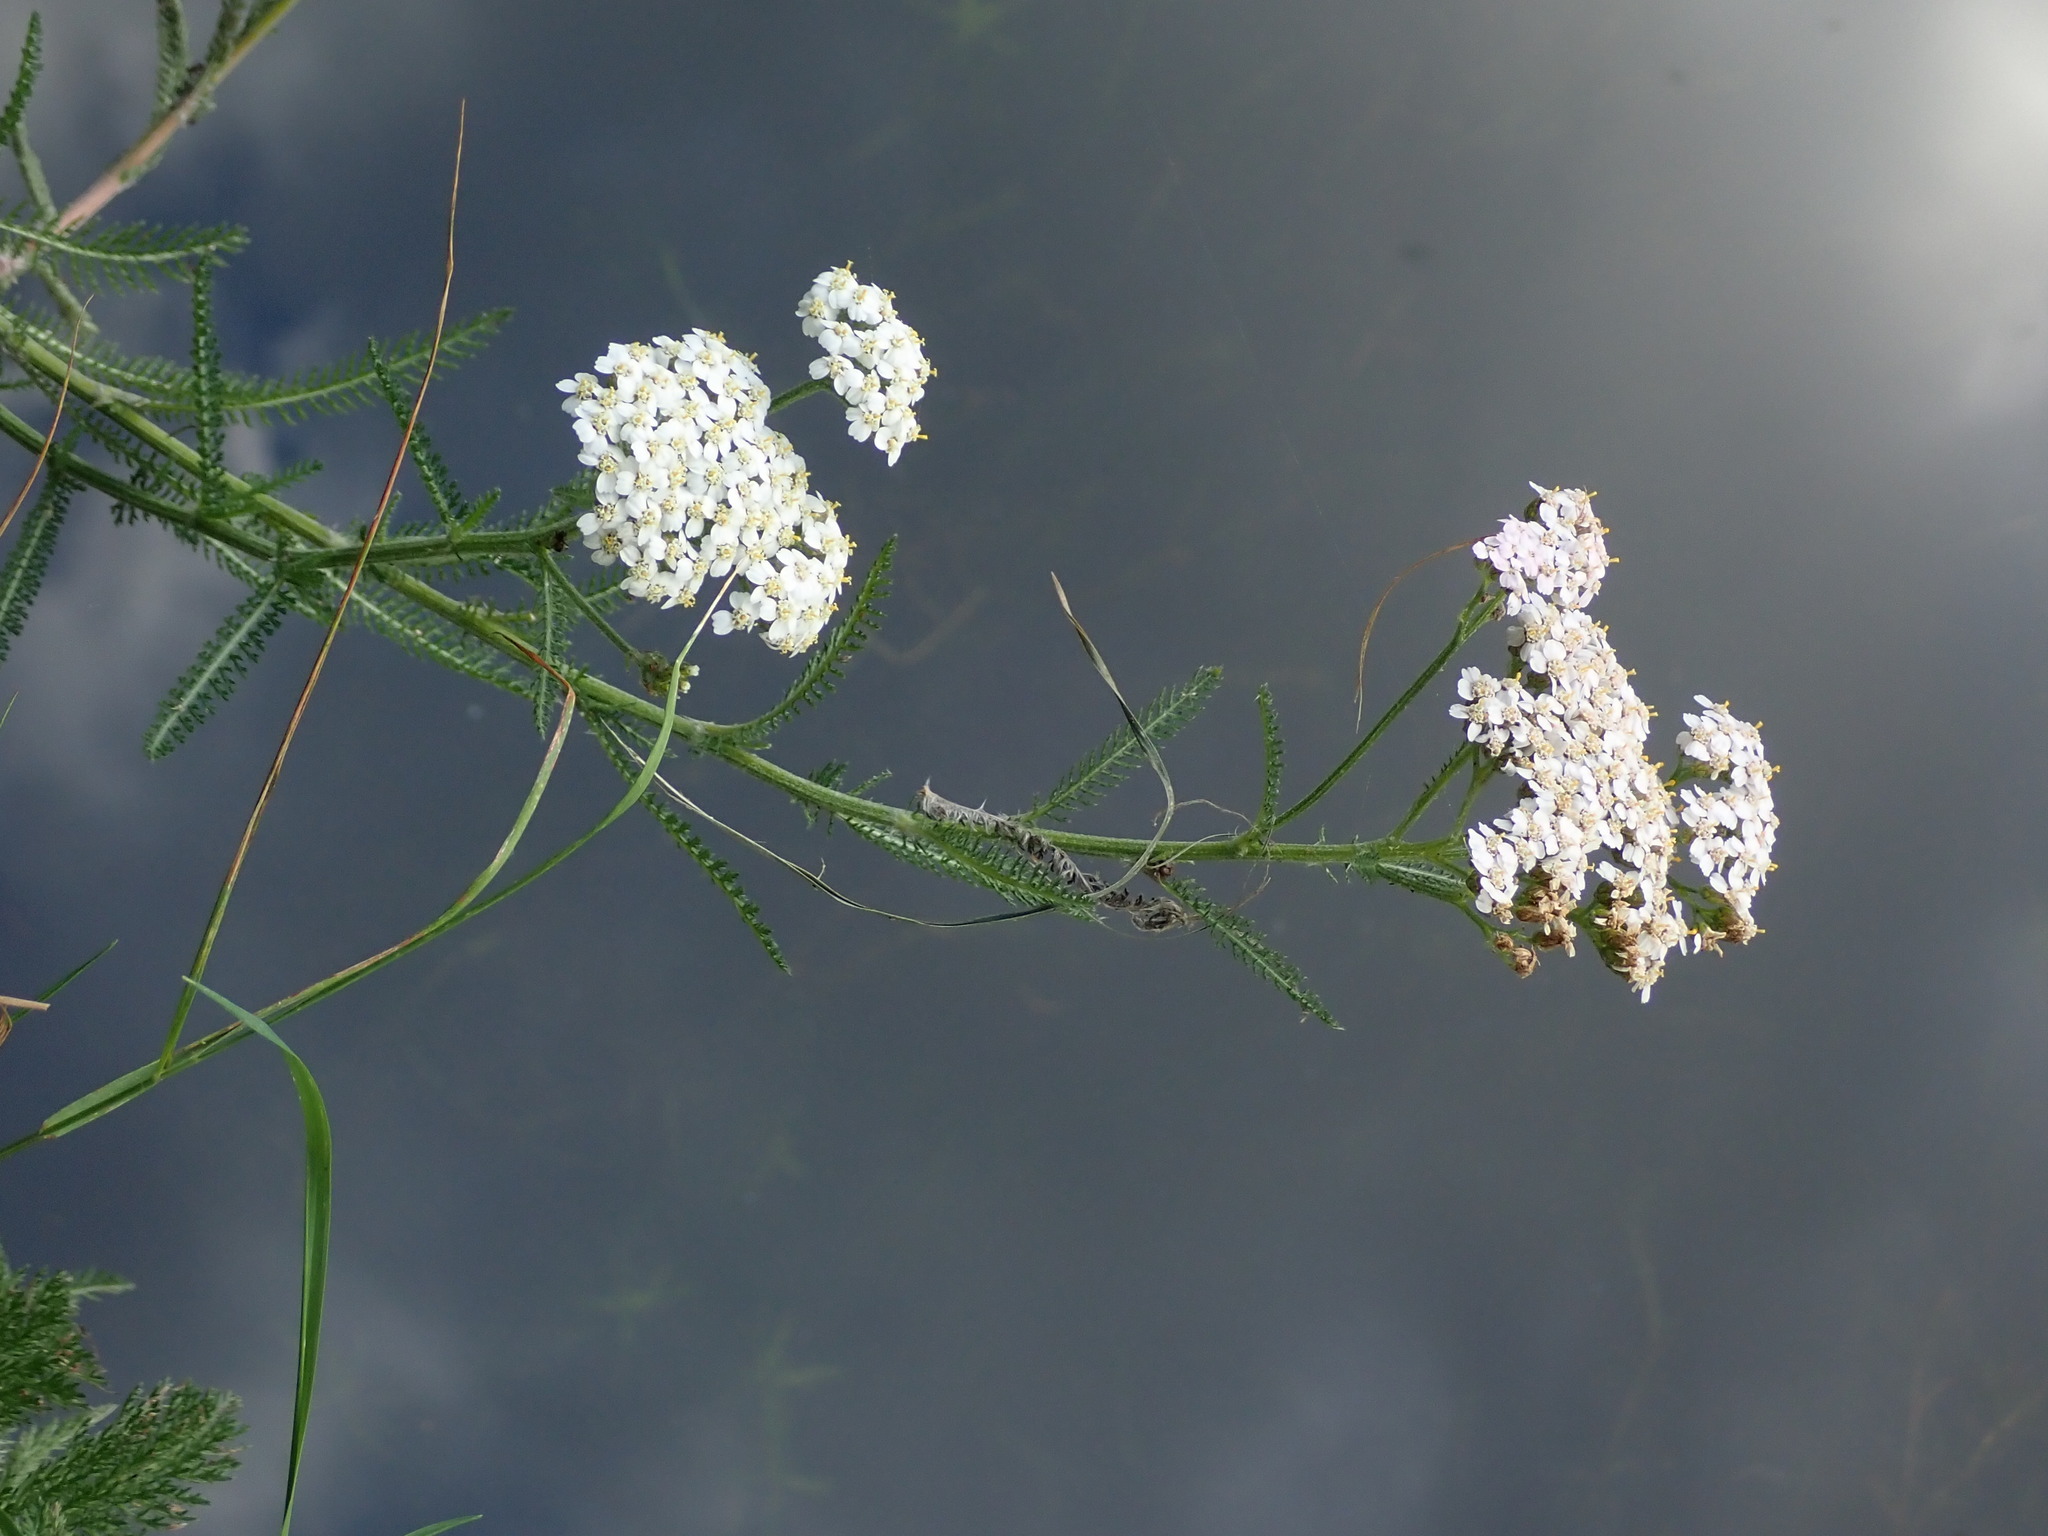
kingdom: Plantae
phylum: Tracheophyta
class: Magnoliopsida
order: Asterales
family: Asteraceae
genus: Achillea
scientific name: Achillea millefolium
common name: Yarrow
